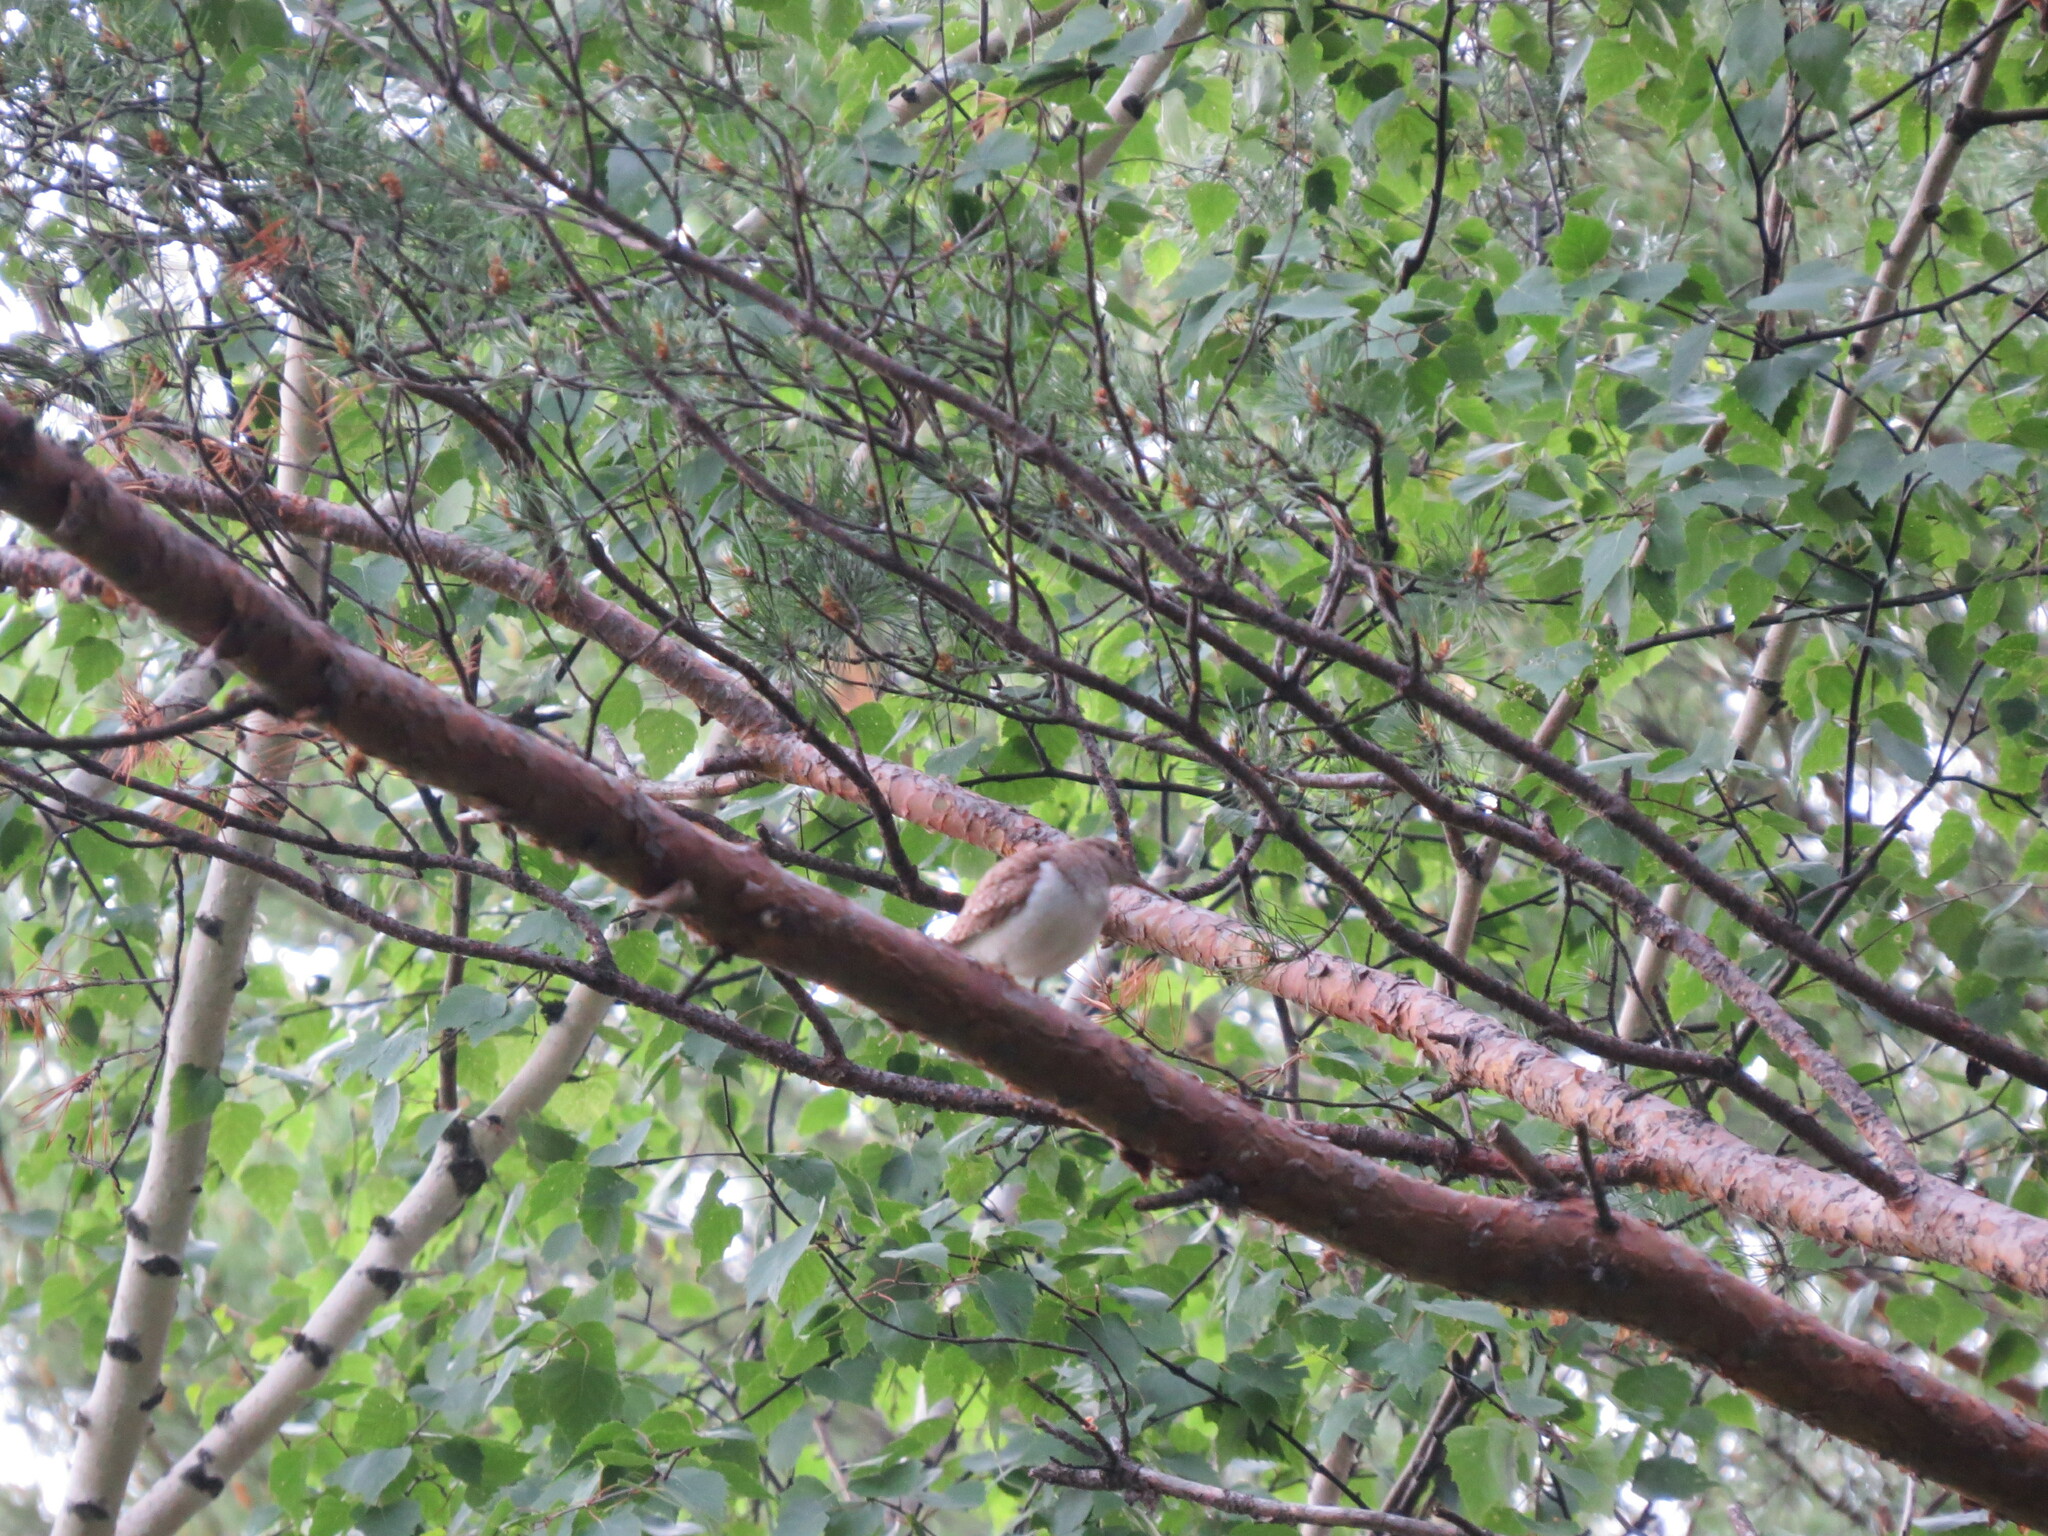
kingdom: Animalia
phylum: Chordata
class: Aves
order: Charadriiformes
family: Scolopacidae
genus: Actitis
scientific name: Actitis hypoleucos
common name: Common sandpiper
